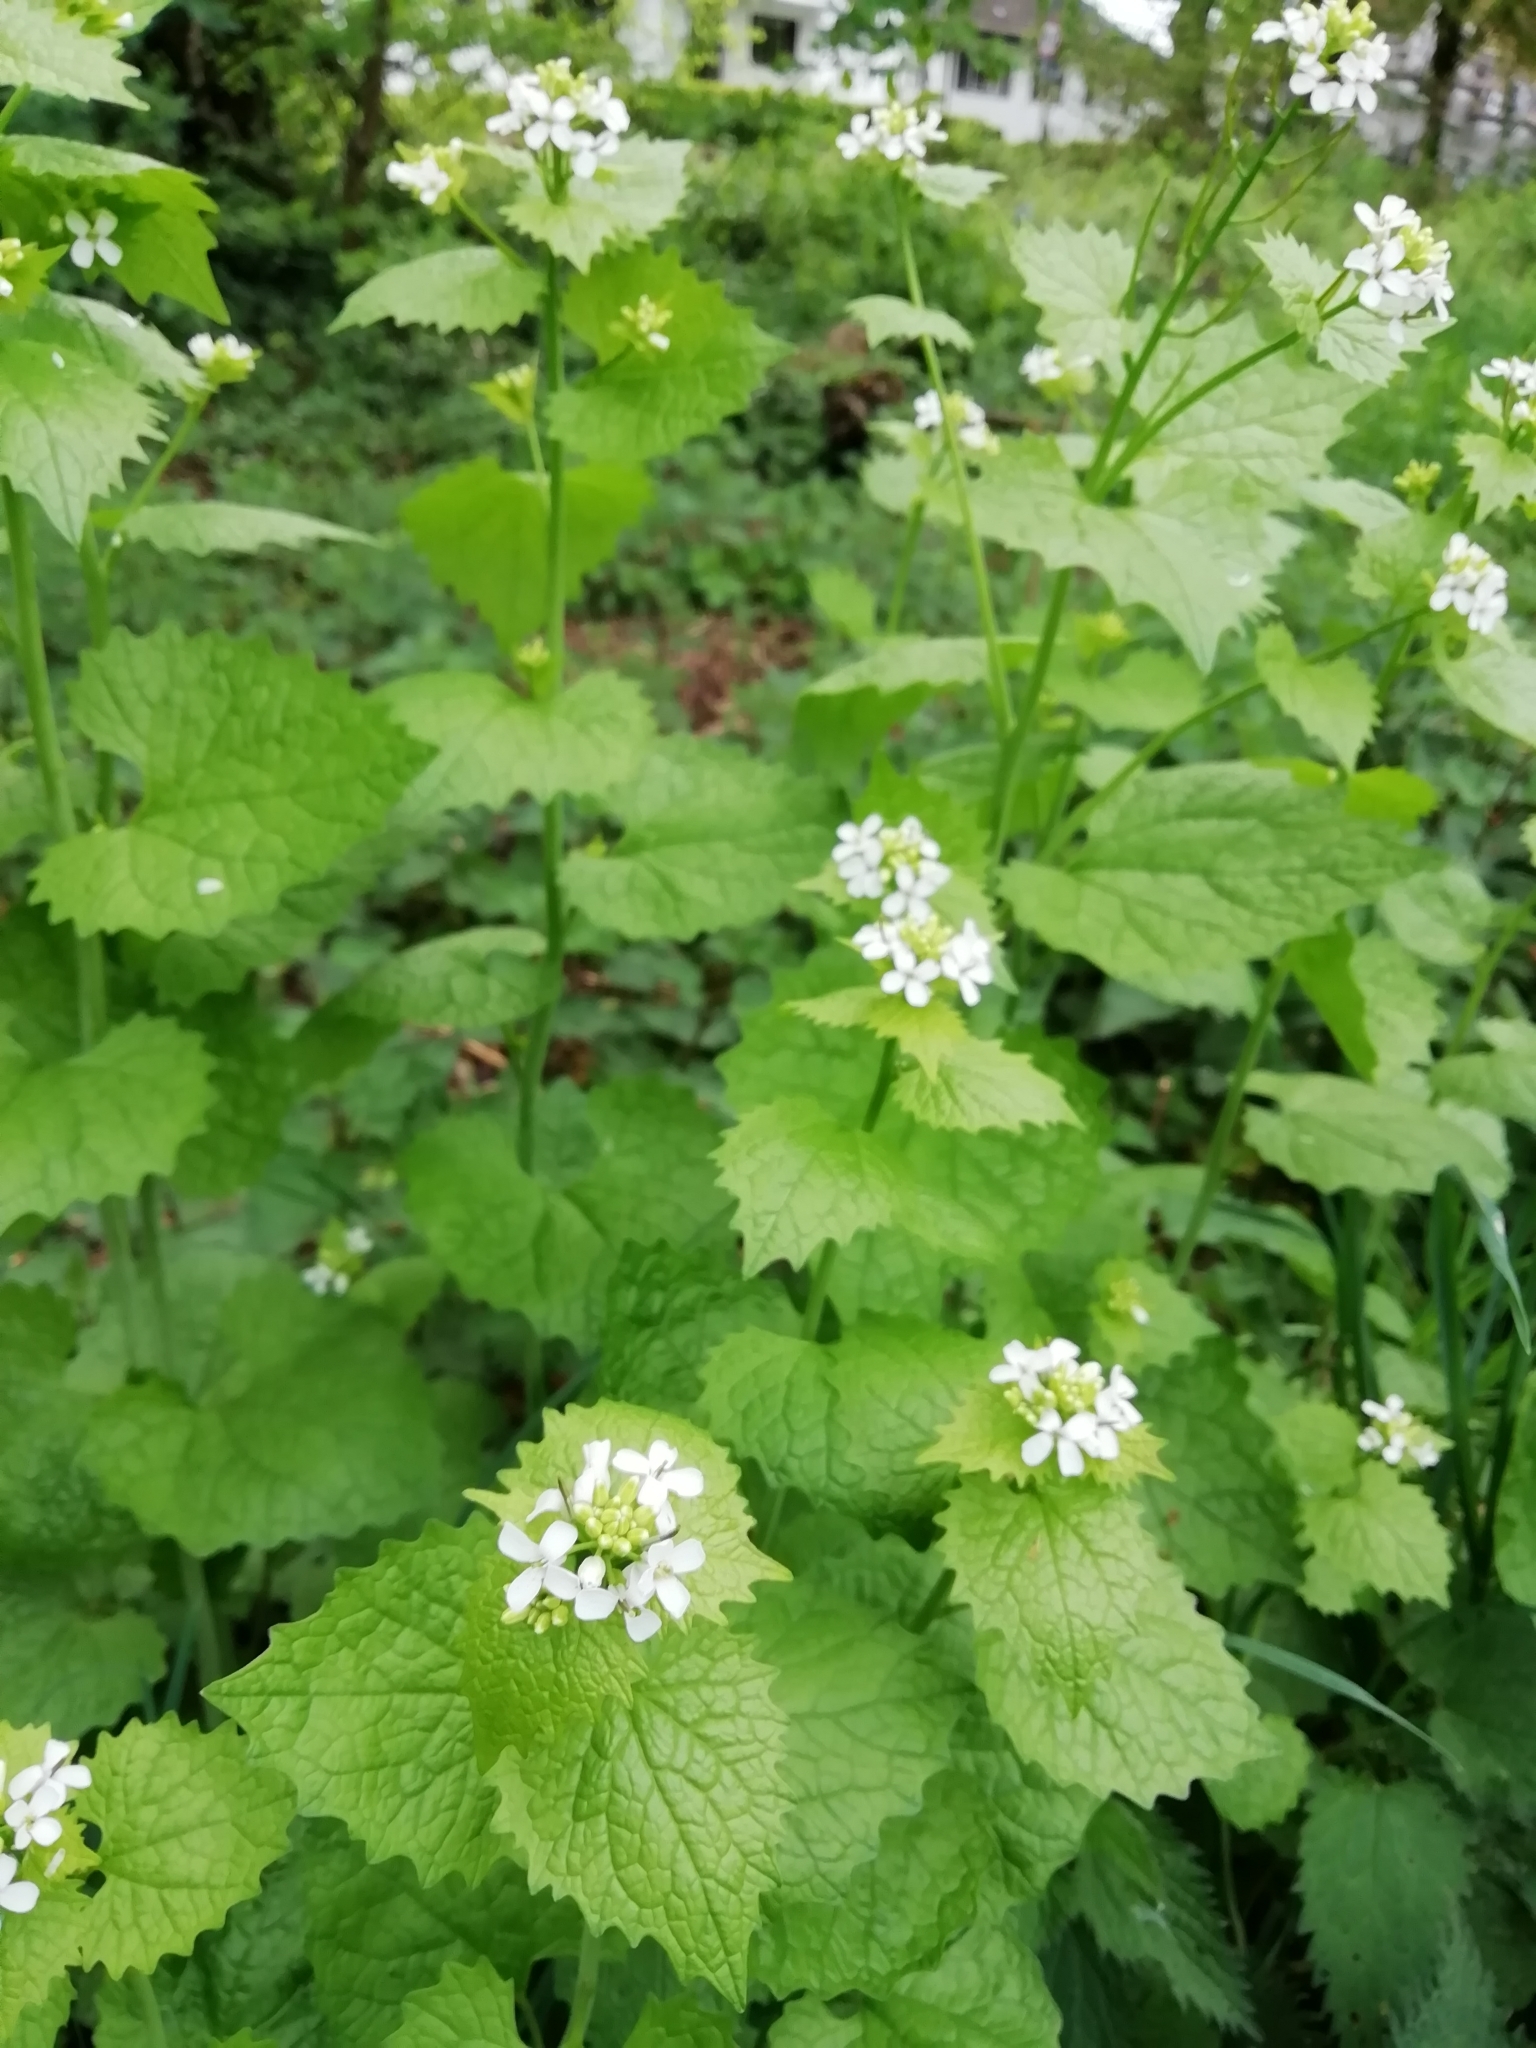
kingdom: Plantae
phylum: Tracheophyta
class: Magnoliopsida
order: Brassicales
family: Brassicaceae
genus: Alliaria
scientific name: Alliaria petiolata
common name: Garlic mustard
